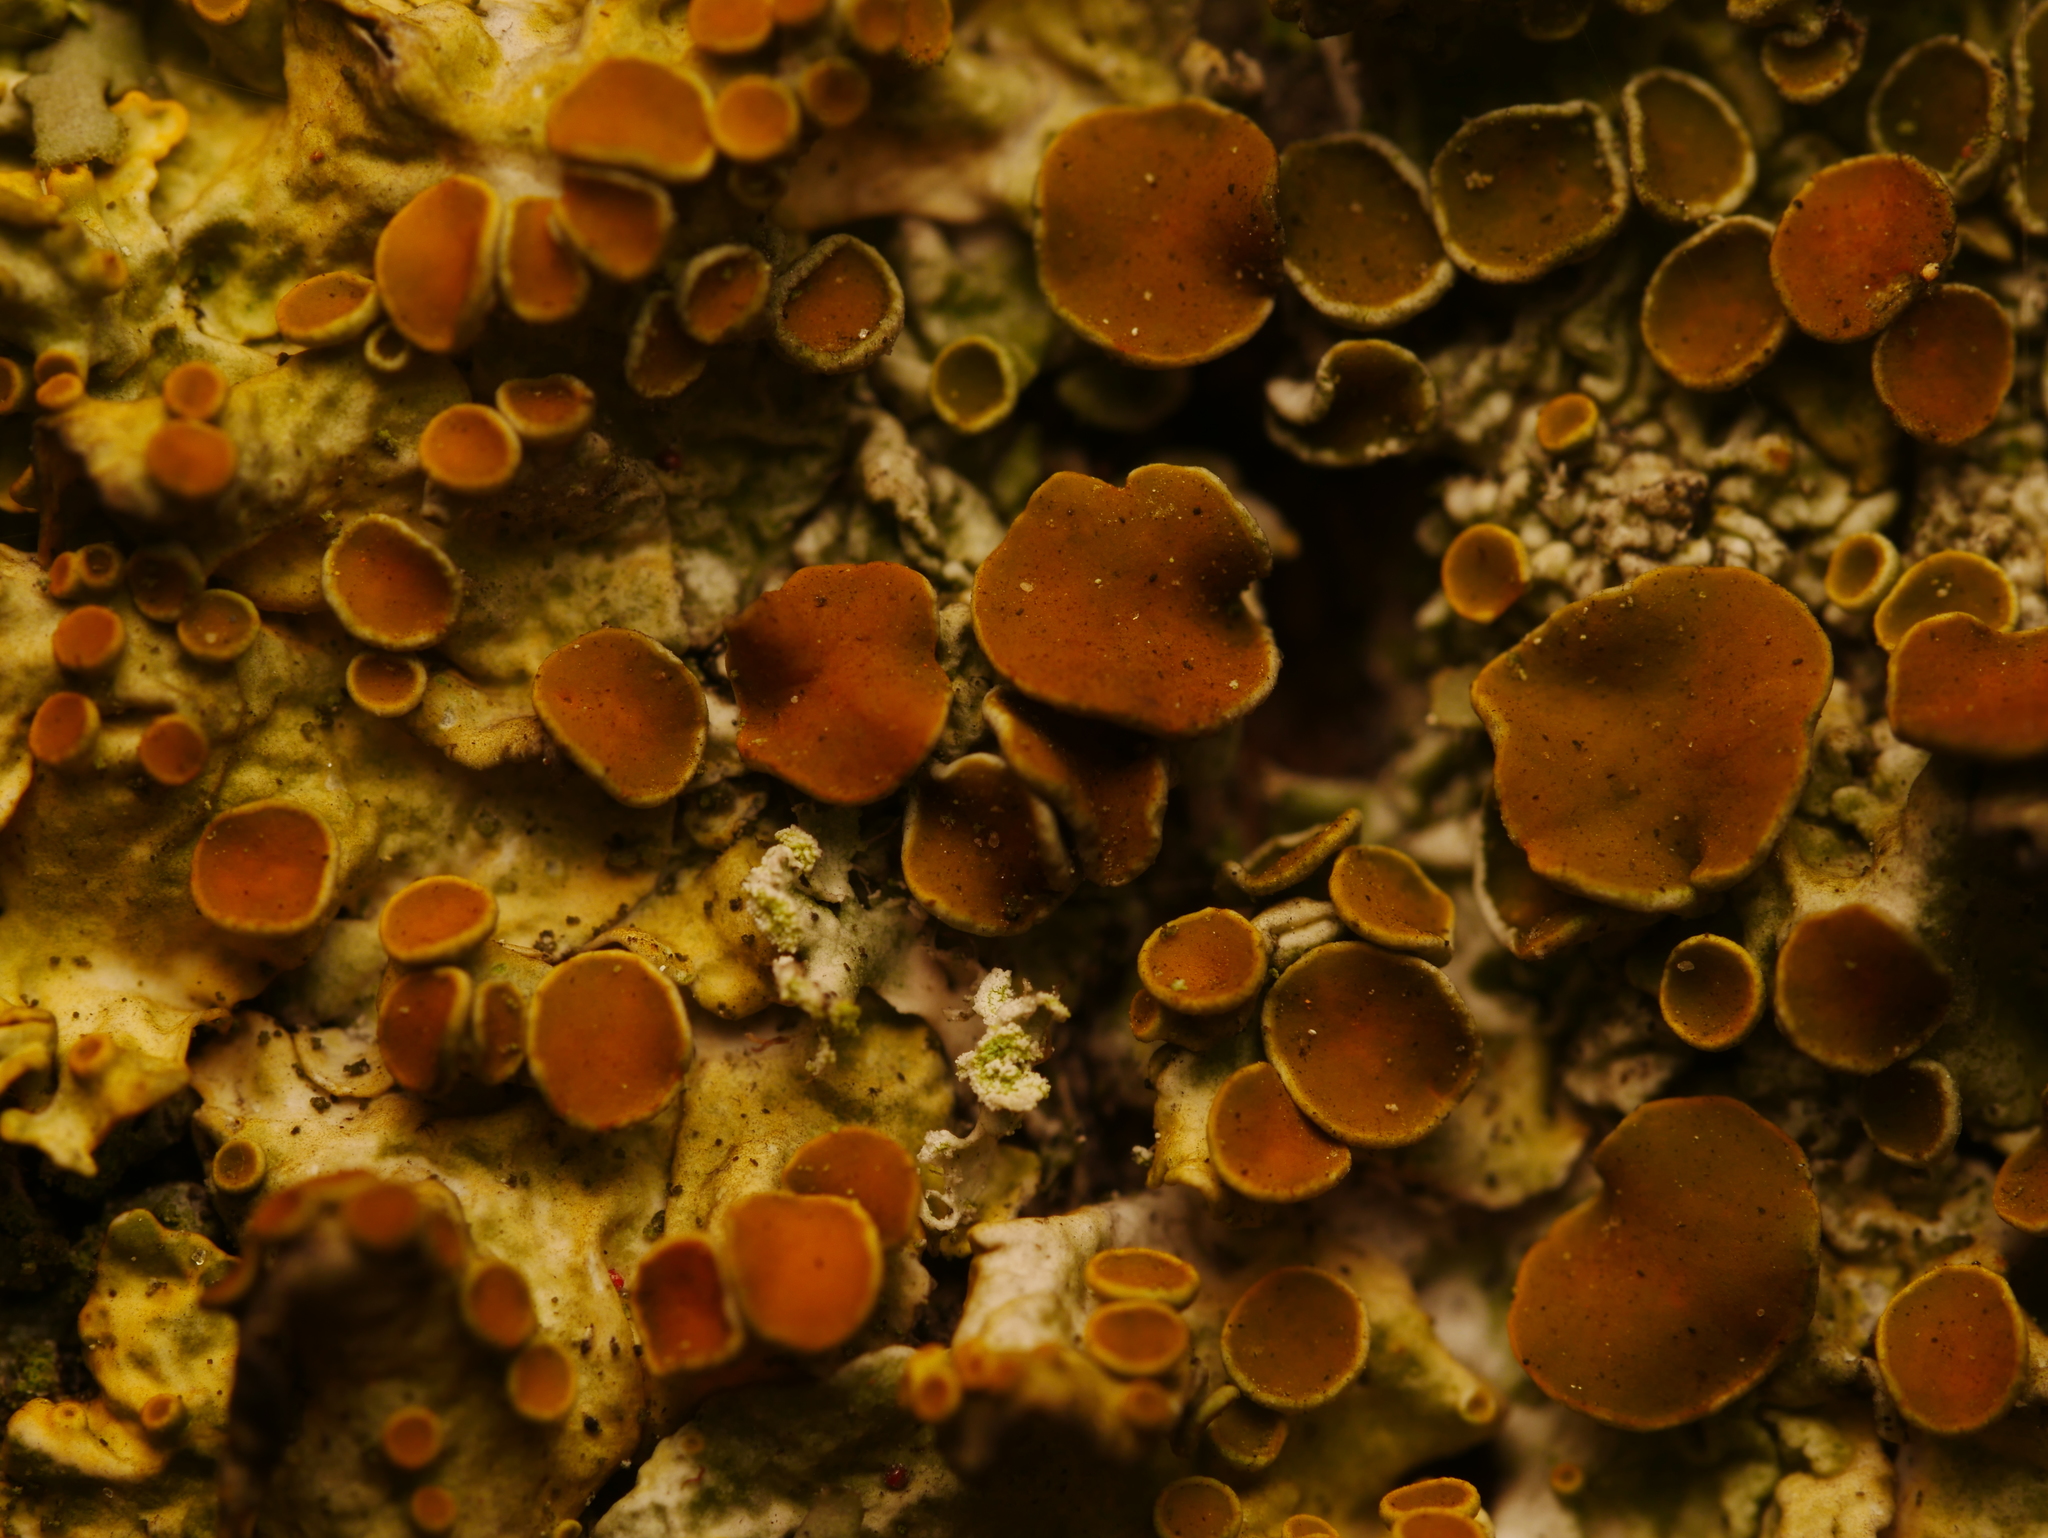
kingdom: Fungi
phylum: Ascomycota
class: Lecanoromycetes
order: Teloschistales
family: Teloschistaceae
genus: Xanthoria
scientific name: Xanthoria parietina
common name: Common orange lichen
